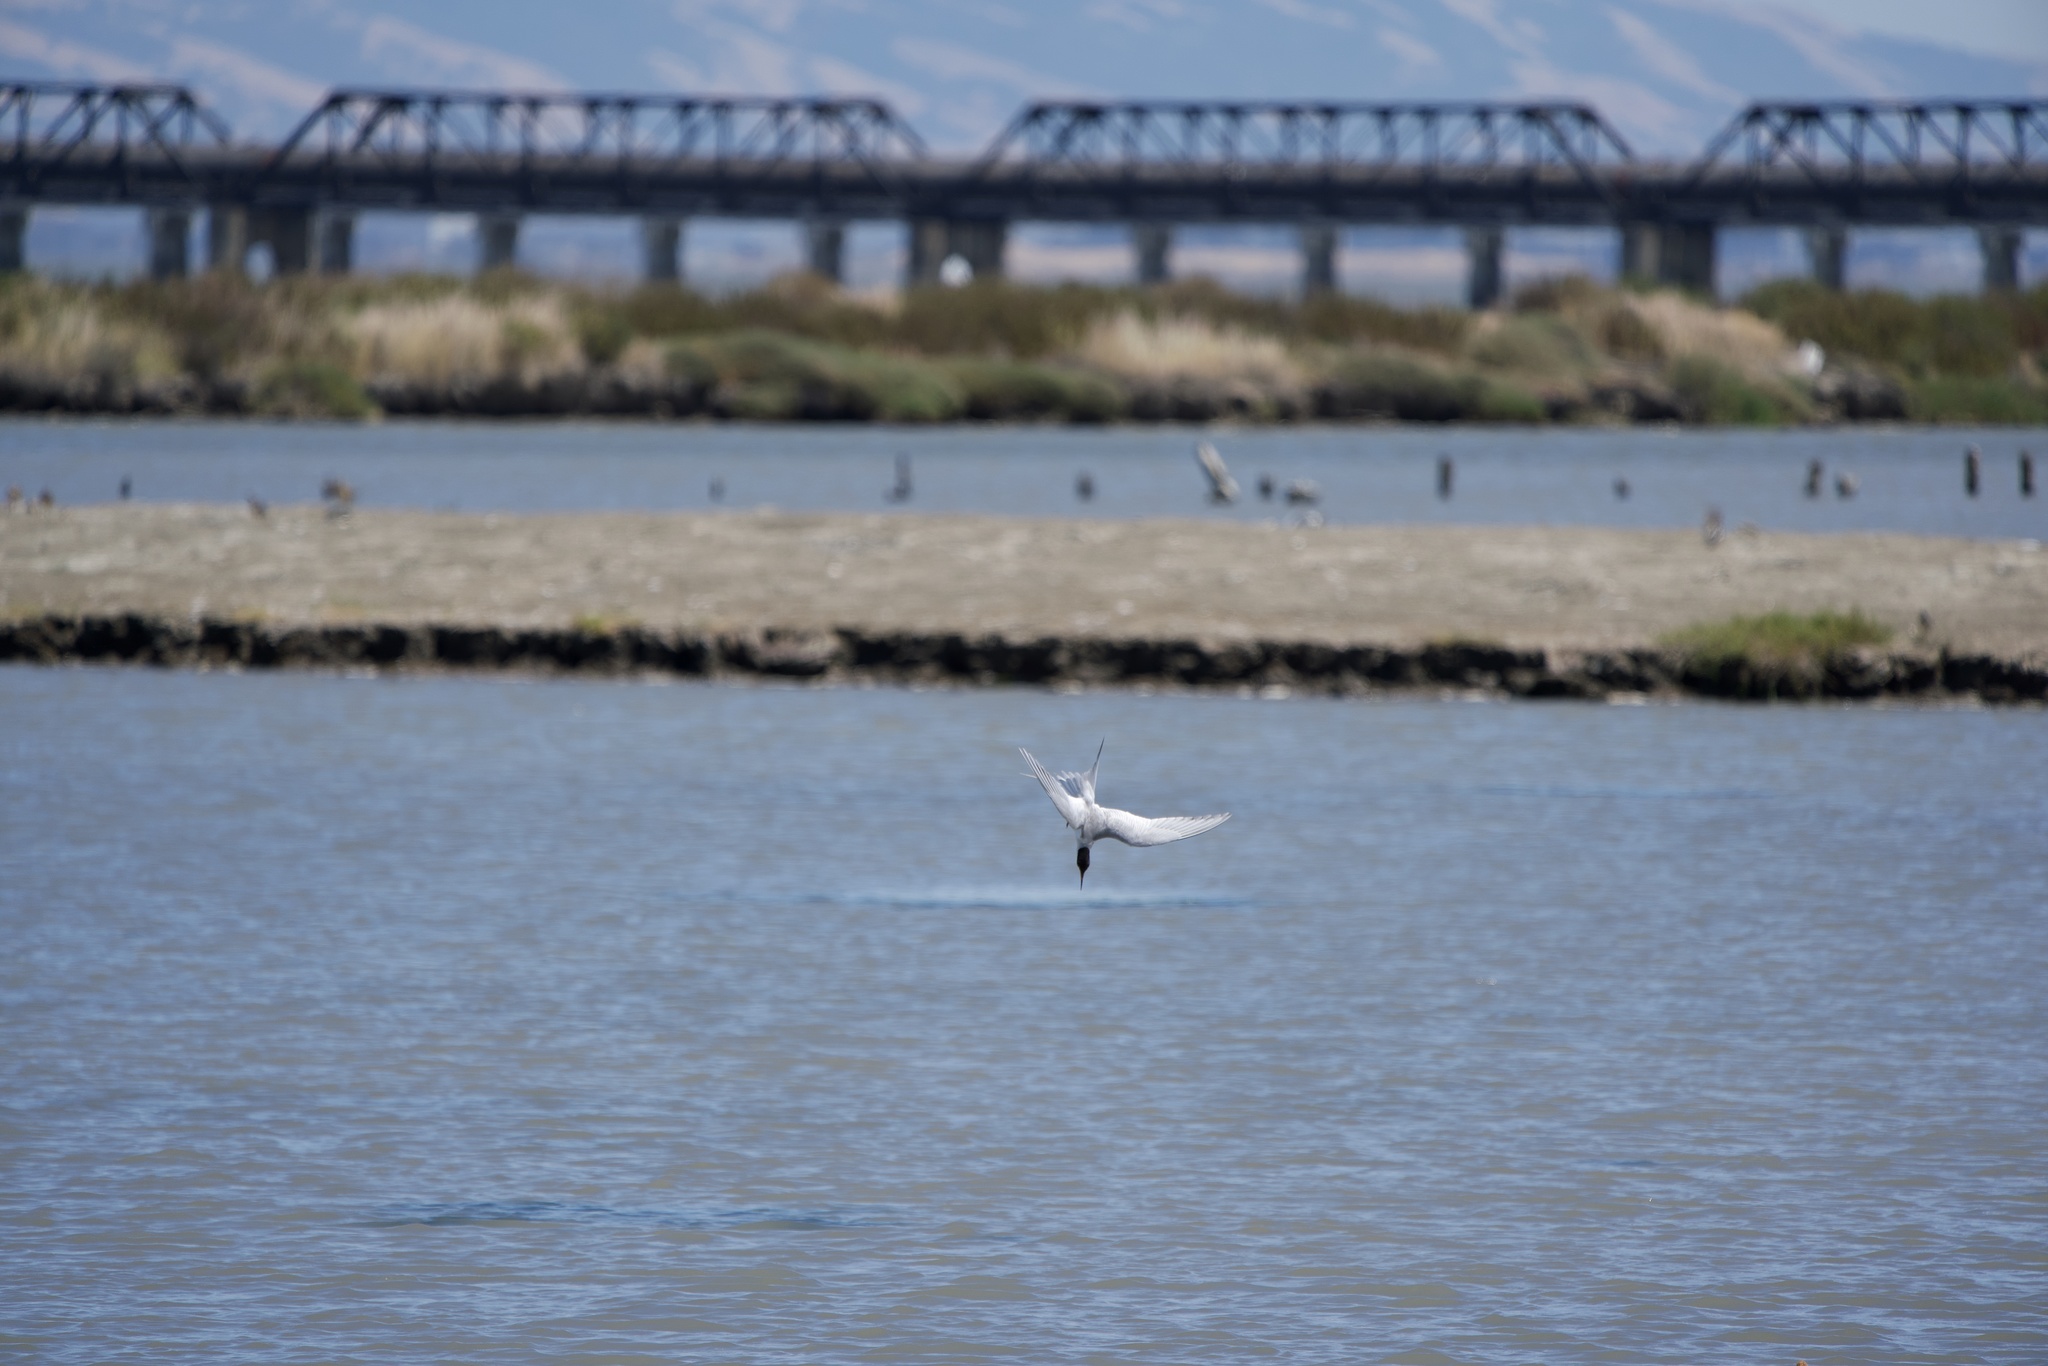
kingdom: Animalia
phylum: Chordata
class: Aves
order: Charadriiformes
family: Laridae
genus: Sterna
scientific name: Sterna forsteri
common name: Forster's tern
